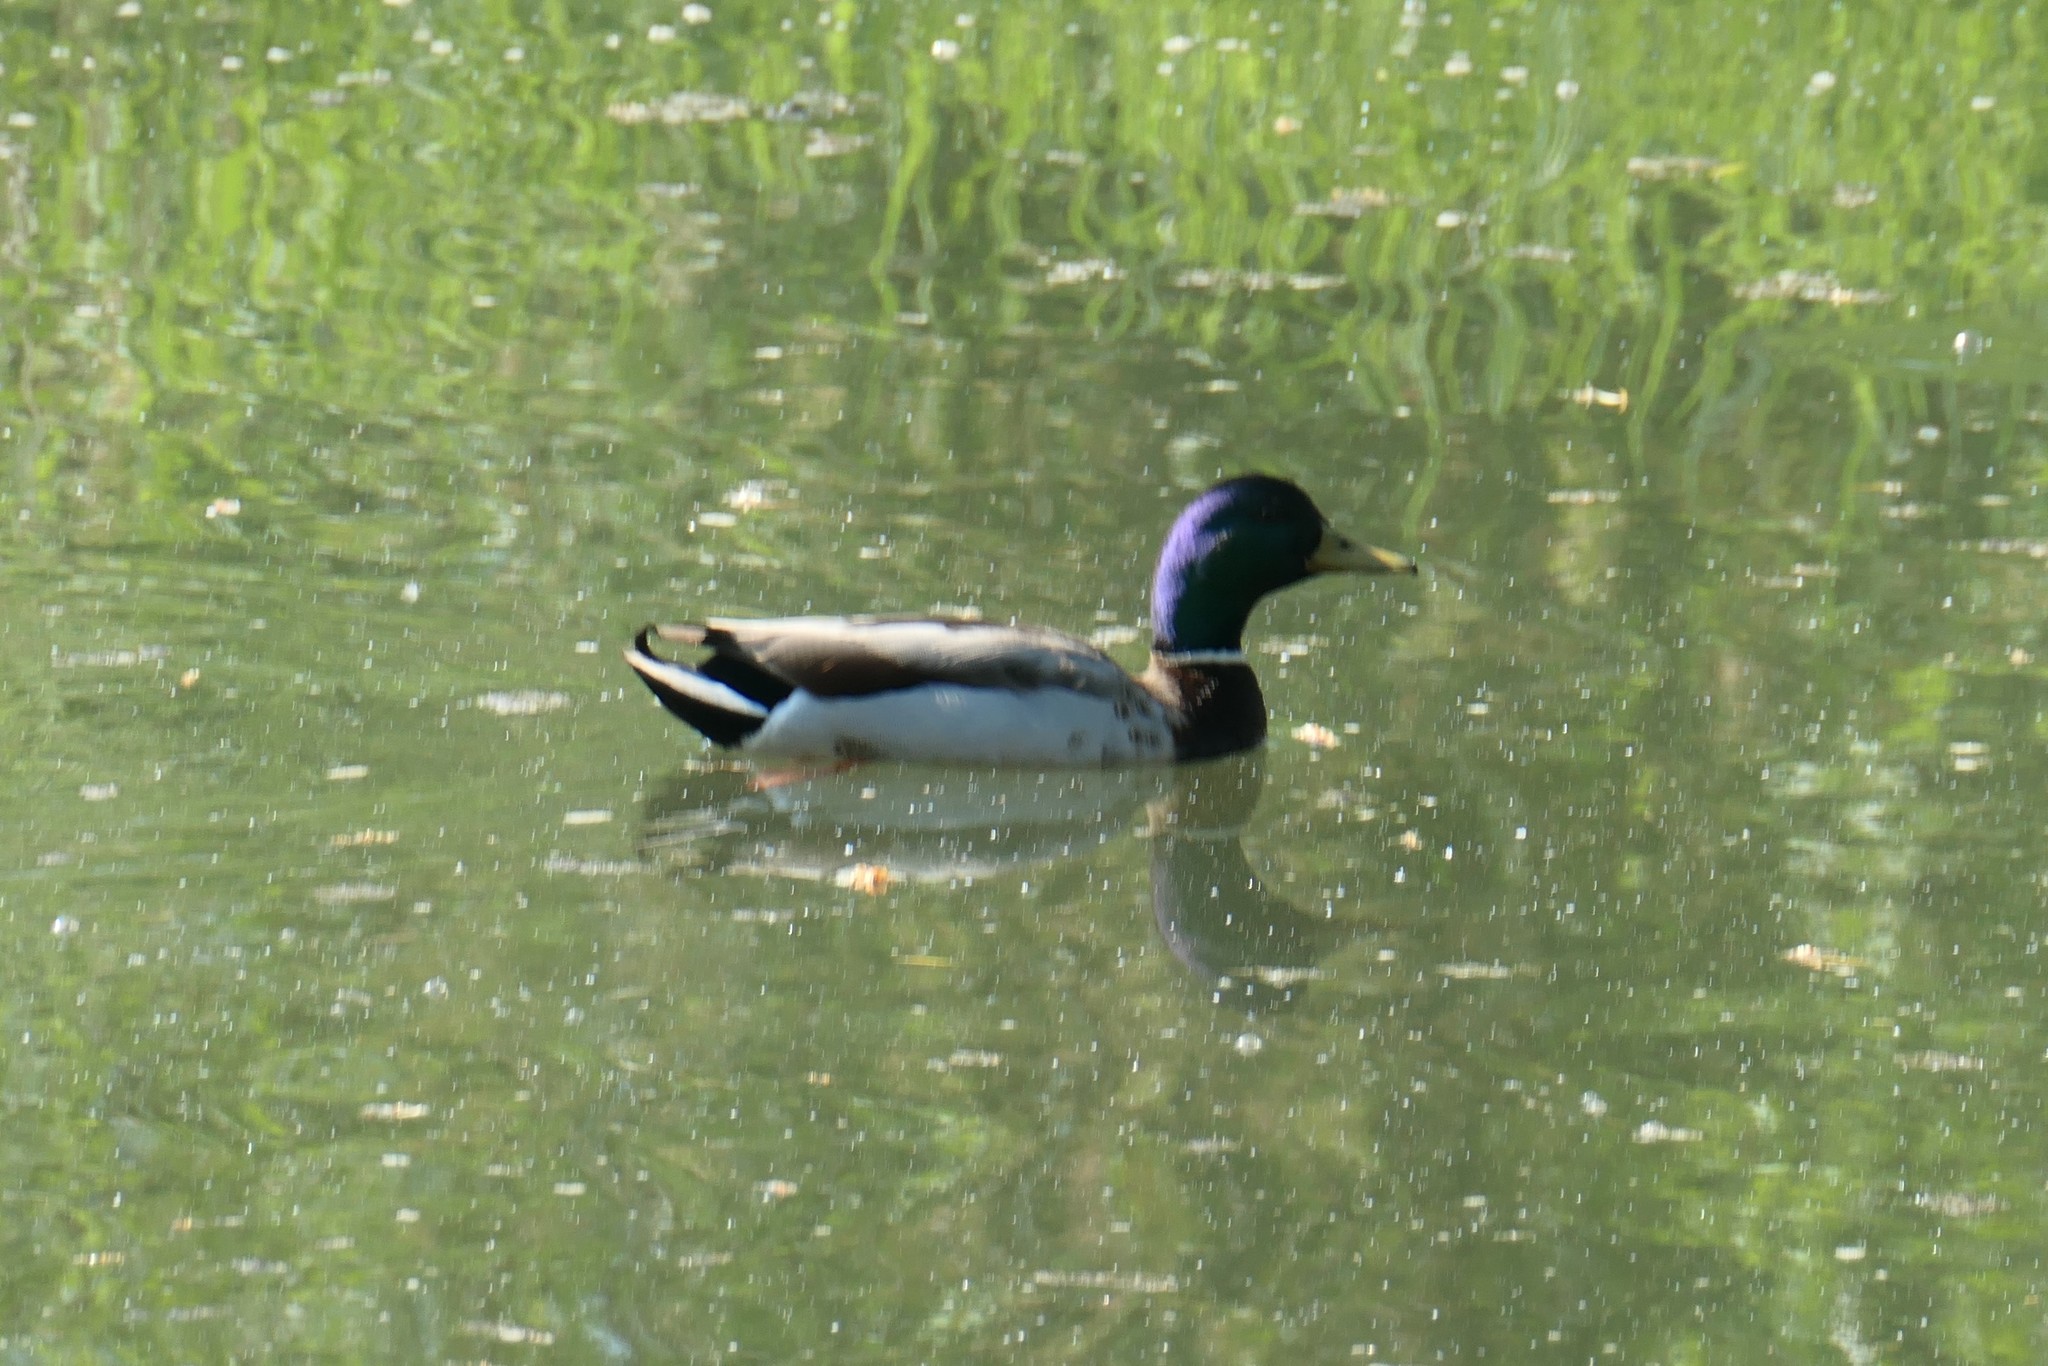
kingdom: Animalia
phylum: Chordata
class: Aves
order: Anseriformes
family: Anatidae
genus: Anas
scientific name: Anas platyrhynchos
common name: Mallard
